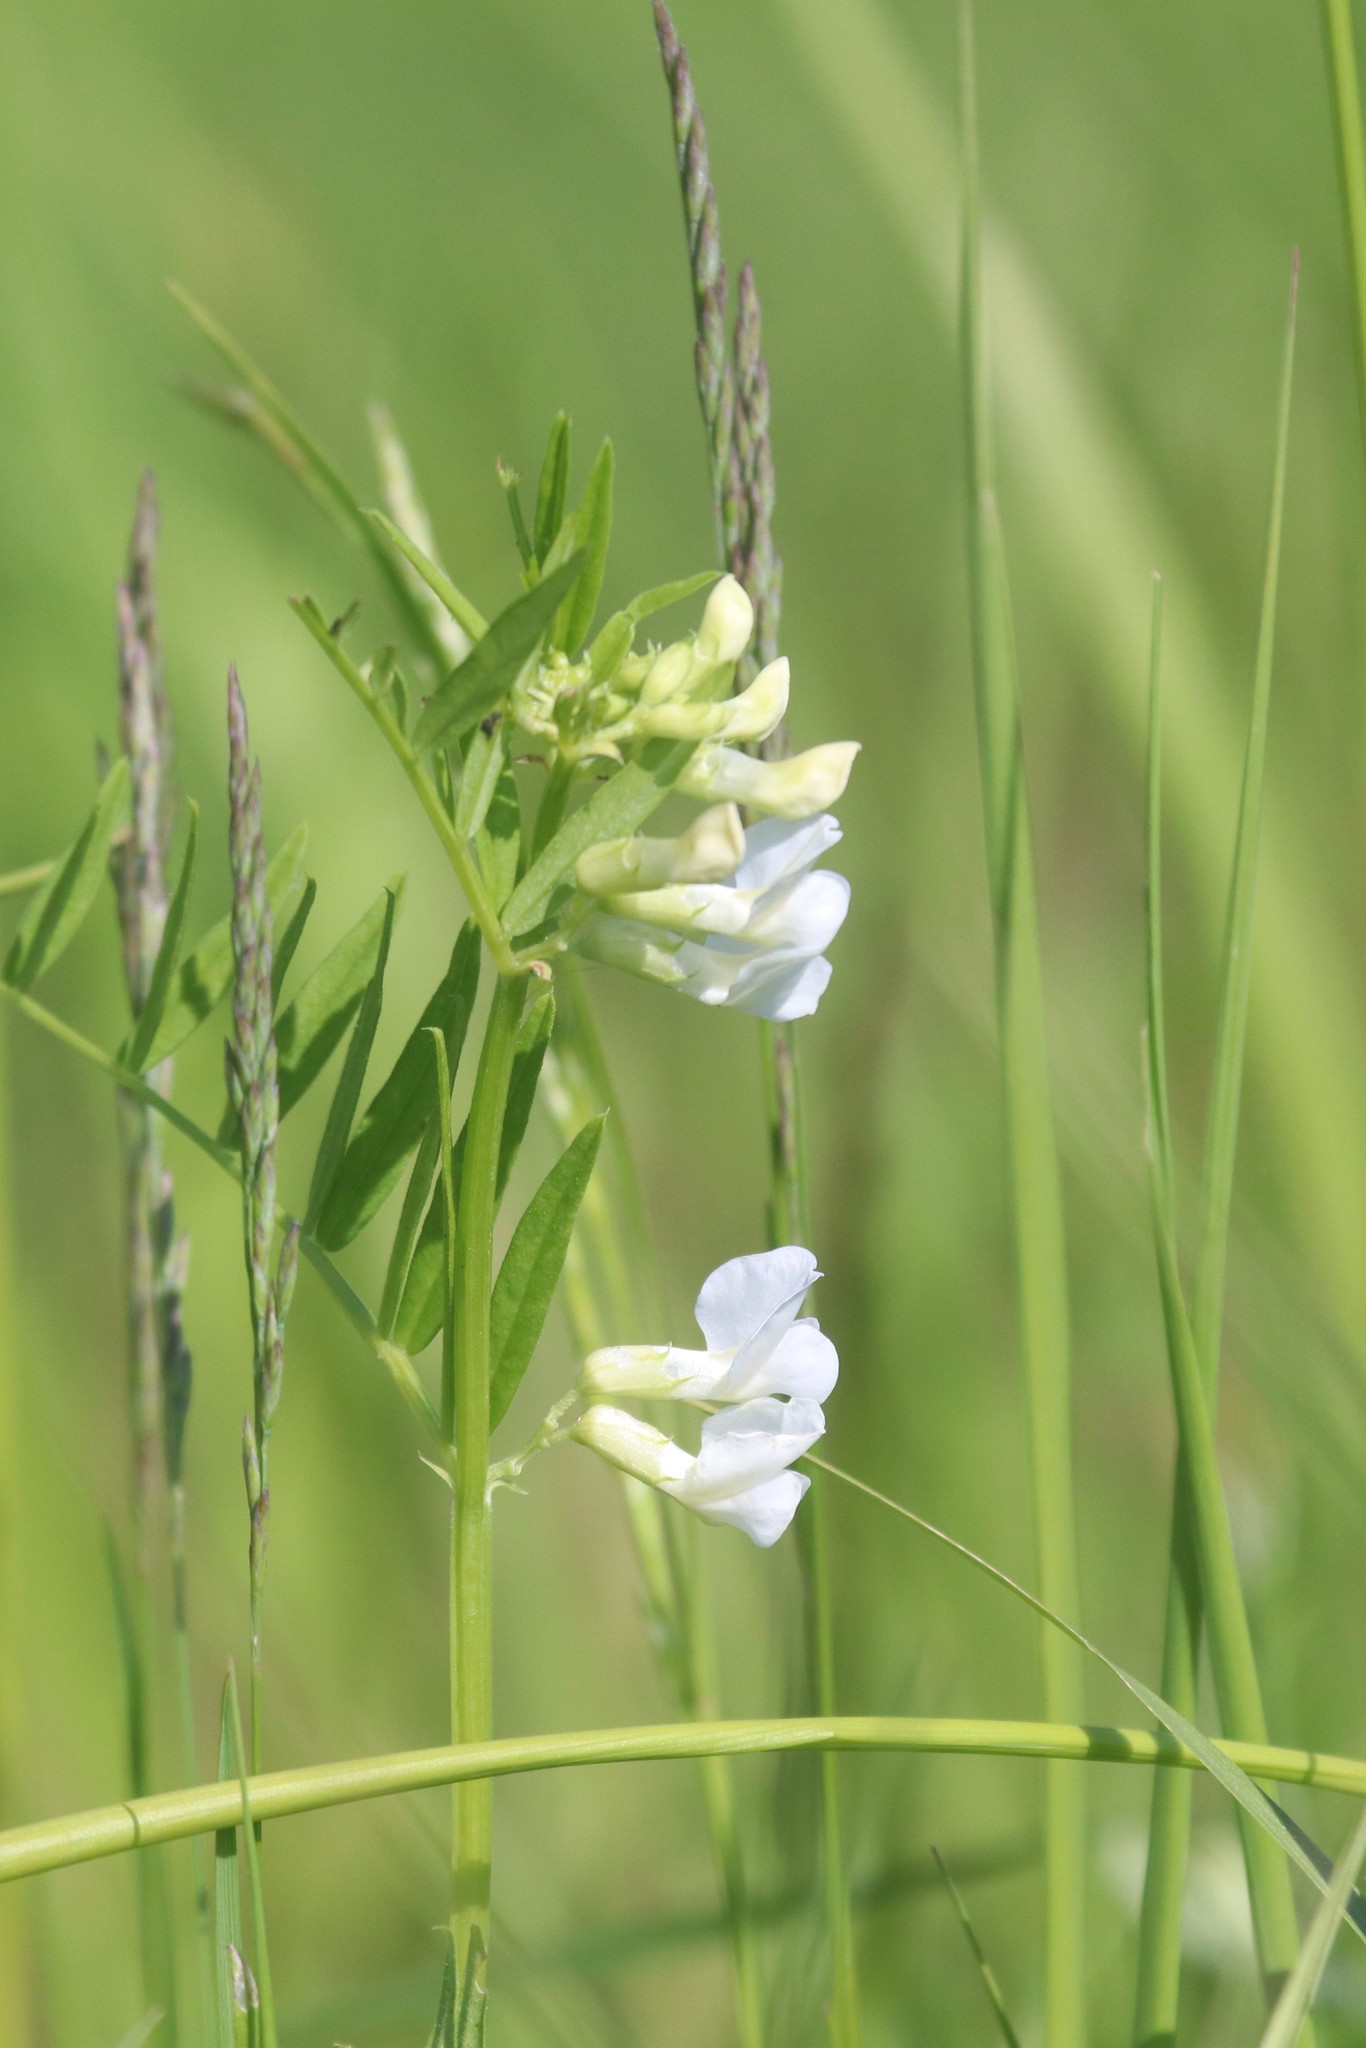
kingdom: Plantae
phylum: Tracheophyta
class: Magnoliopsida
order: Fabales
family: Fabaceae
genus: Vicia
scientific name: Vicia sepium
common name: Bush vetch
